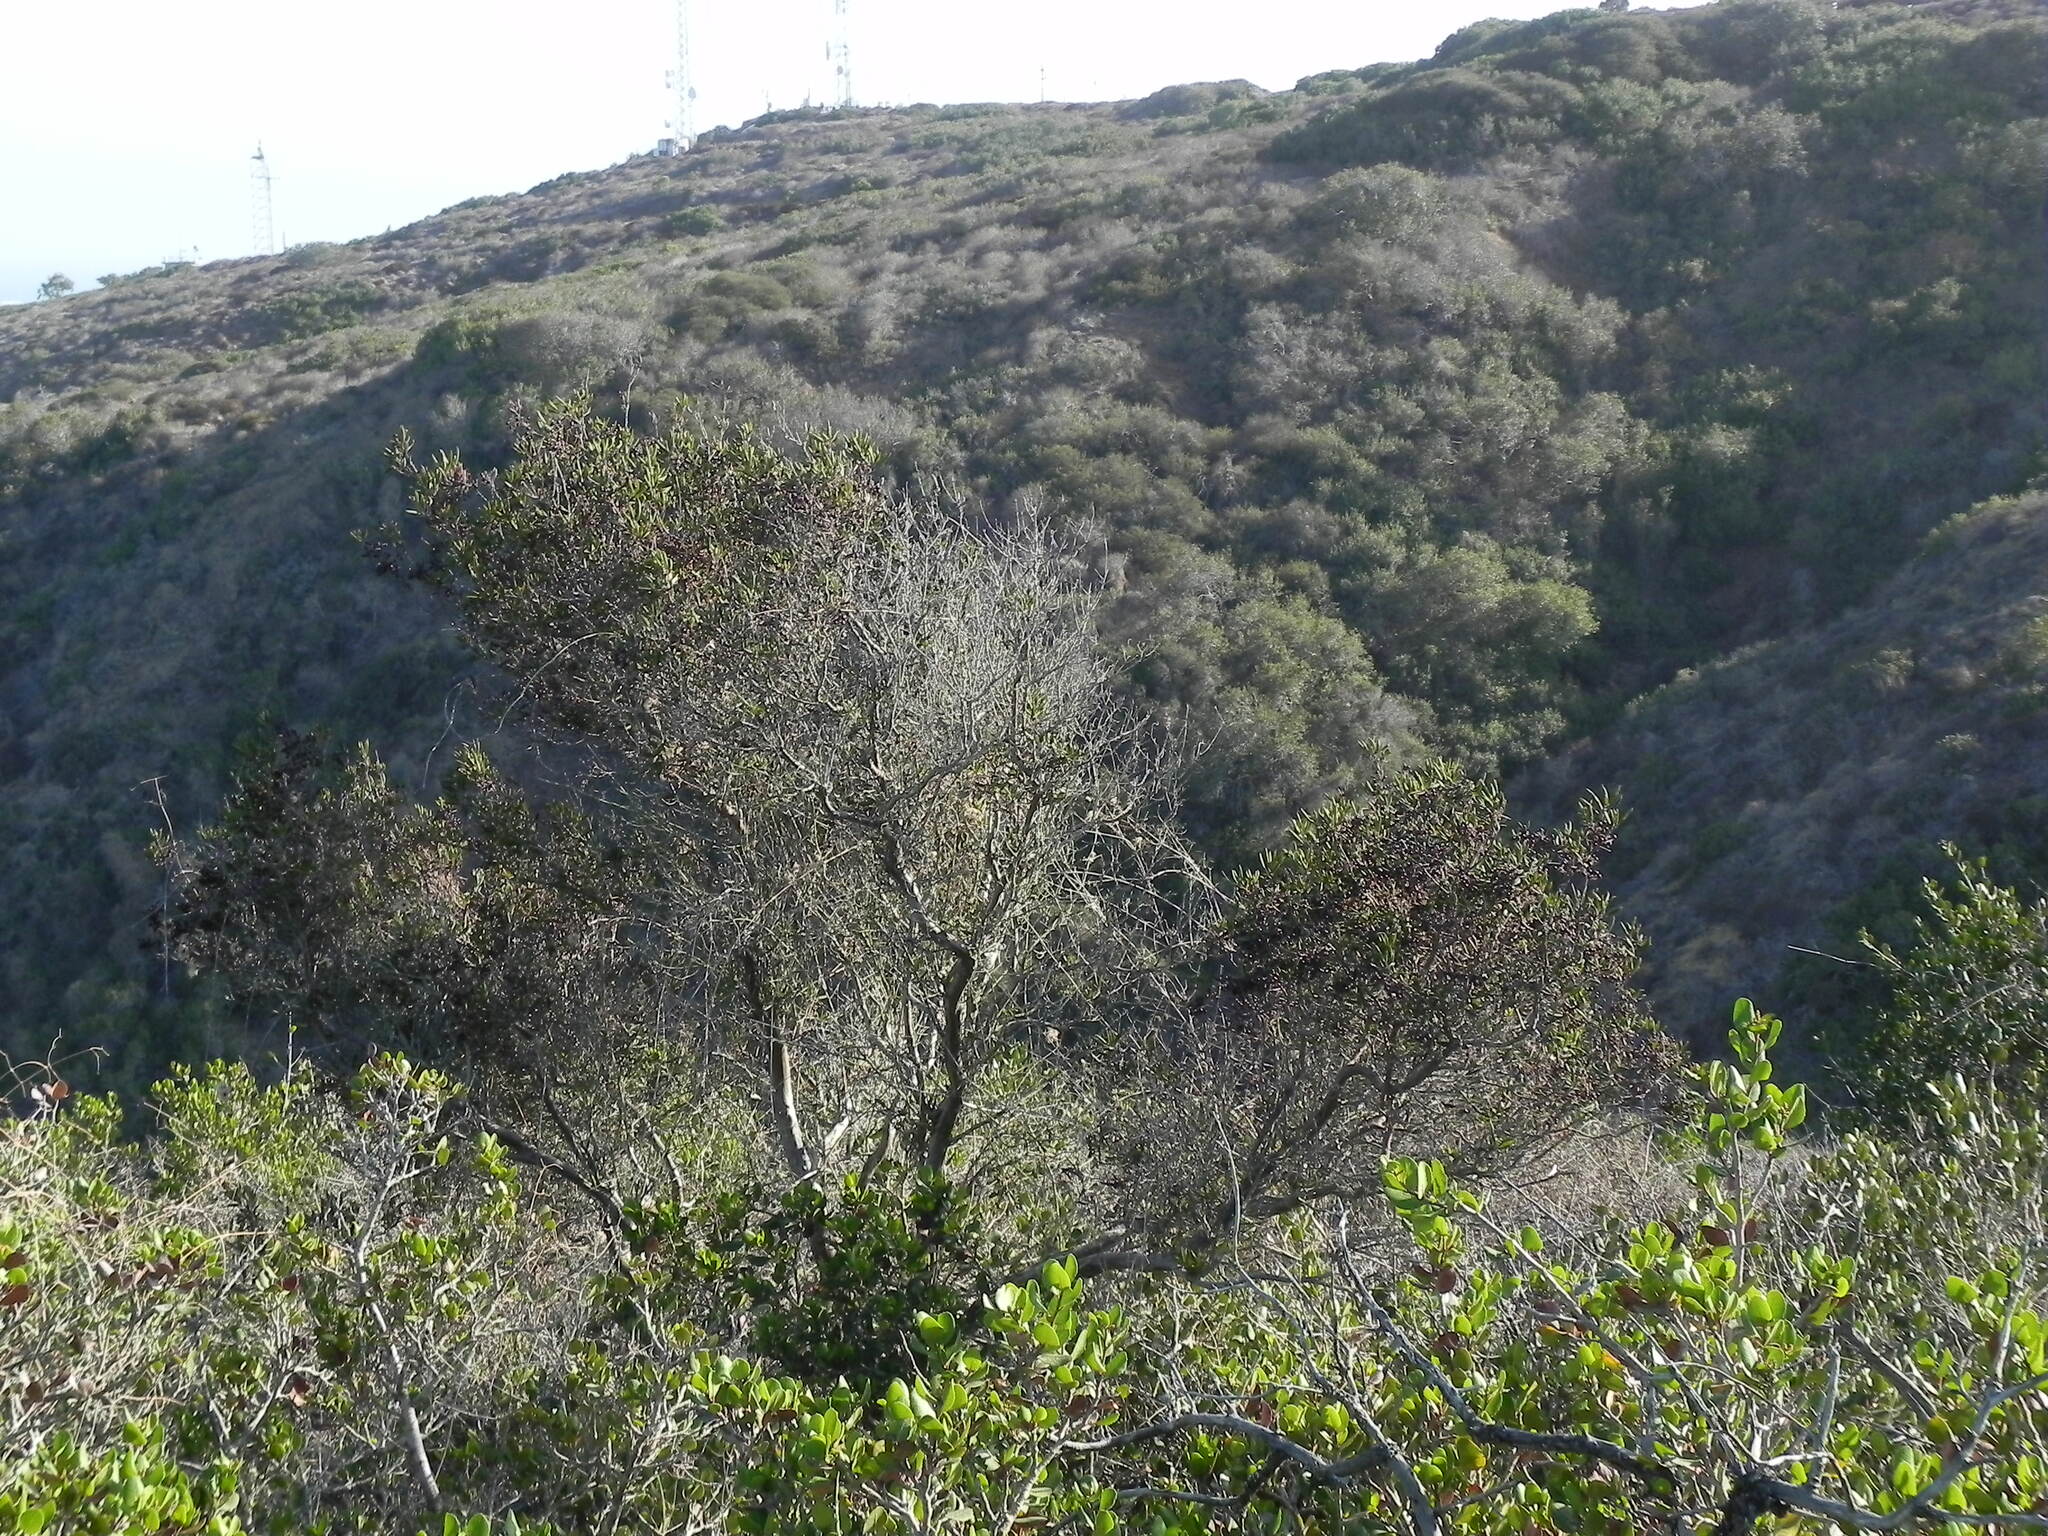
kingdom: Plantae
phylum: Tracheophyta
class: Magnoliopsida
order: Ericales
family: Ericaceae
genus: Arctostaphylos
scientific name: Arctostaphylos bicolor
